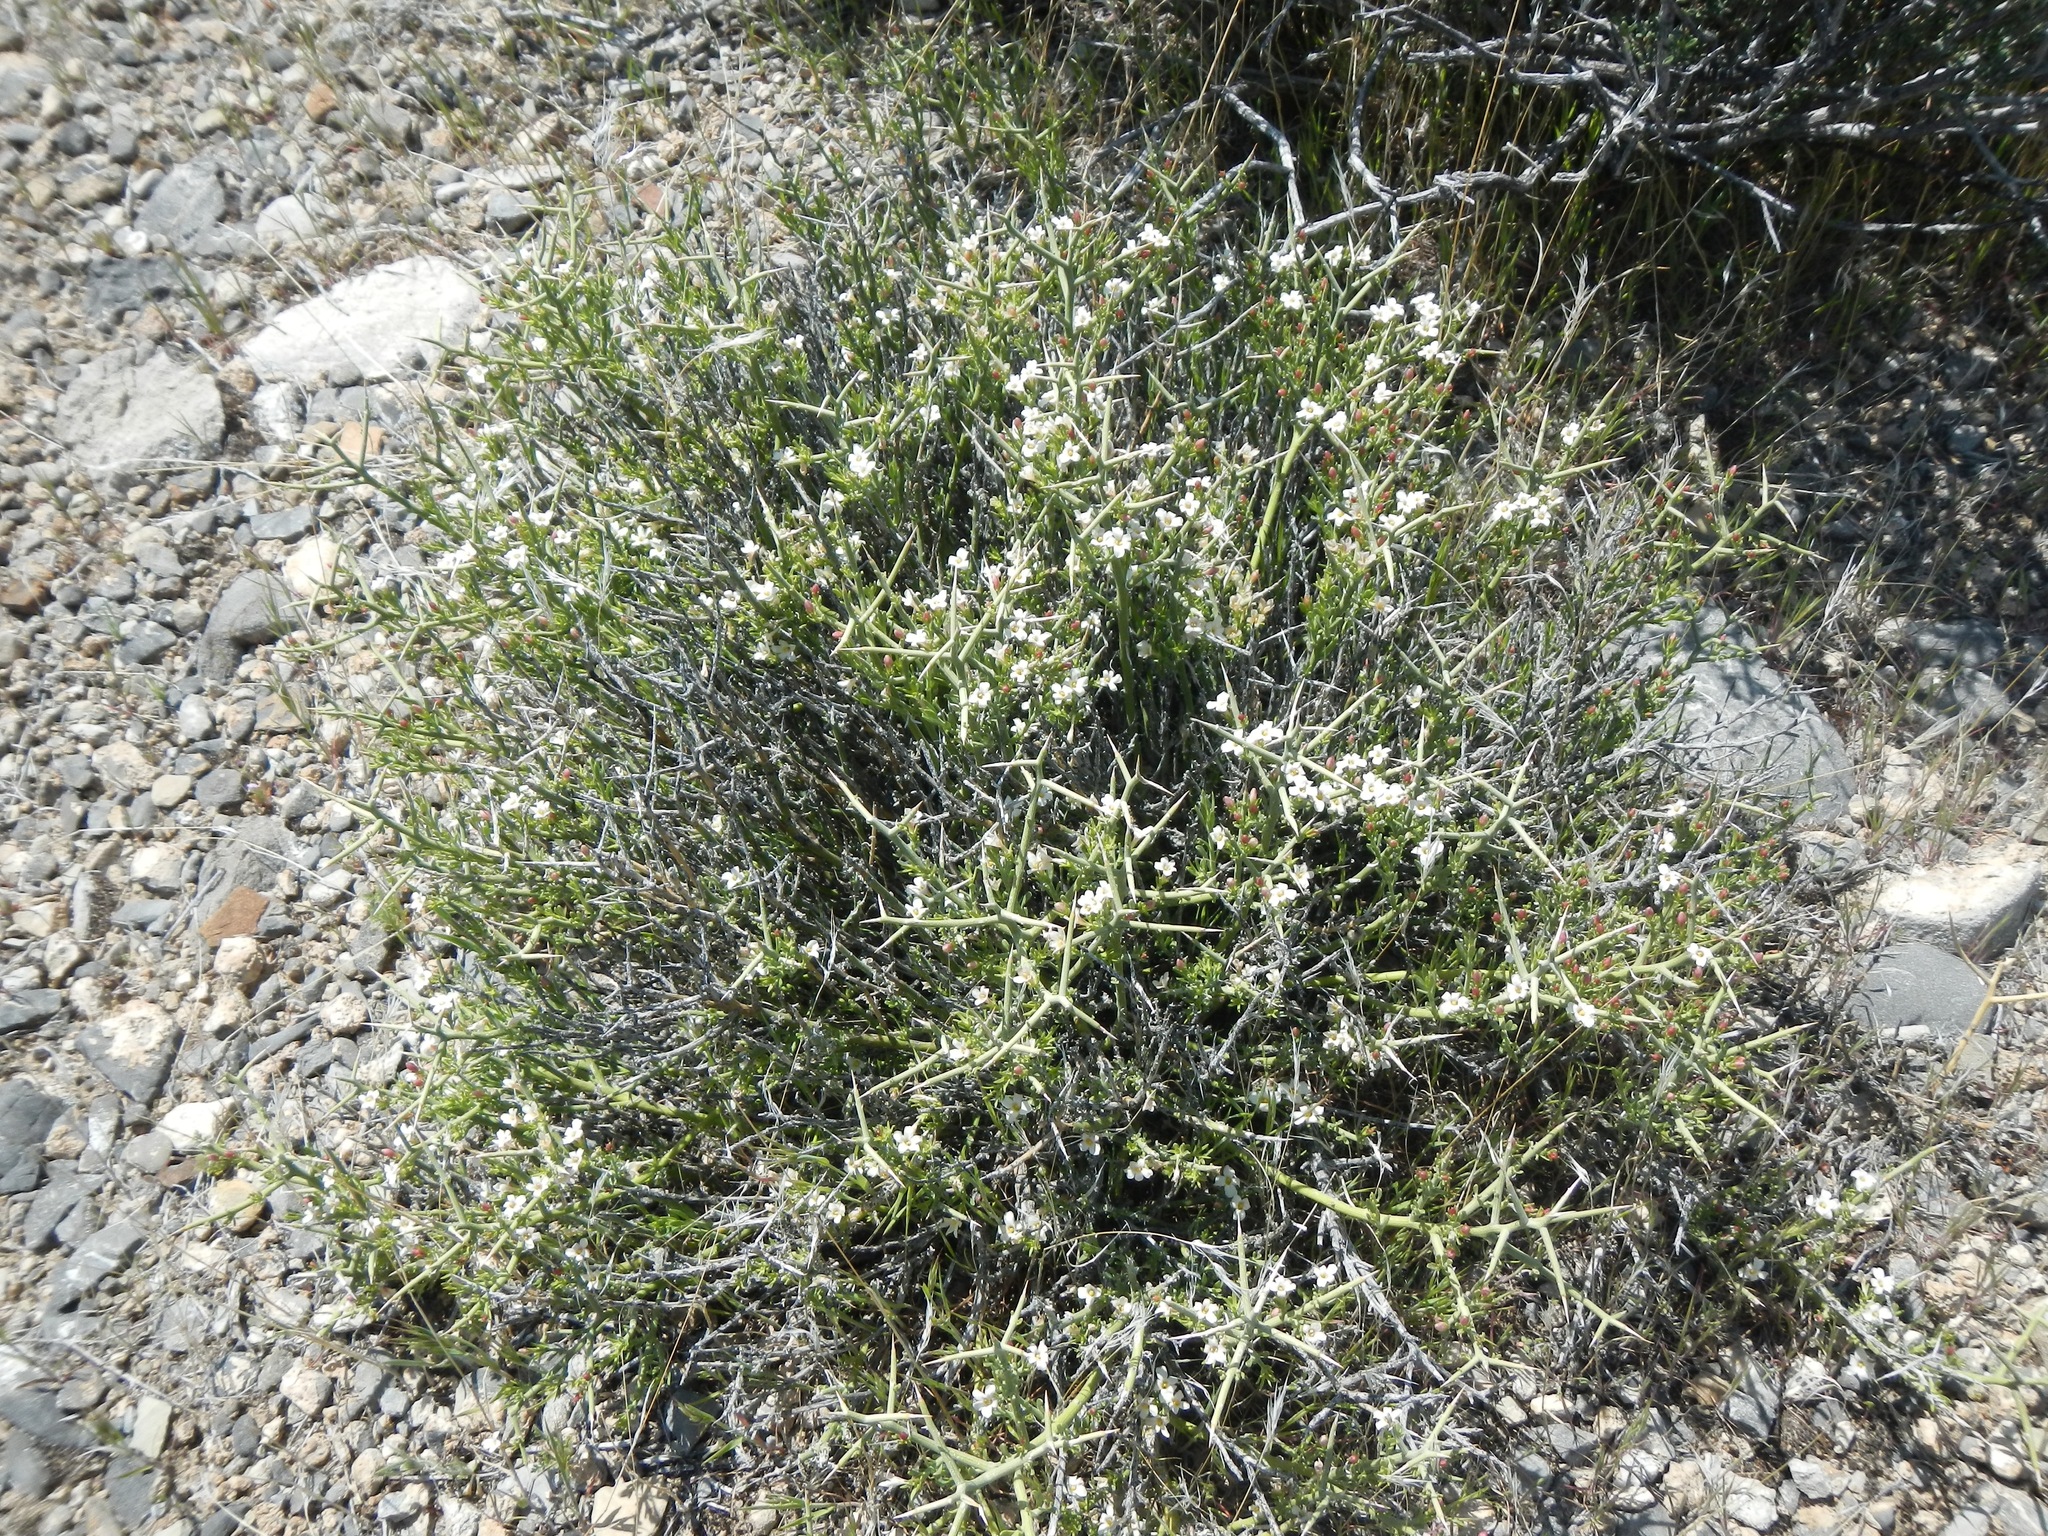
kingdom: Plantae
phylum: Tracheophyta
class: Magnoliopsida
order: Lamiales
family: Oleaceae
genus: Menodora
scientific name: Menodora spinescens
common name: Spiny menodora
